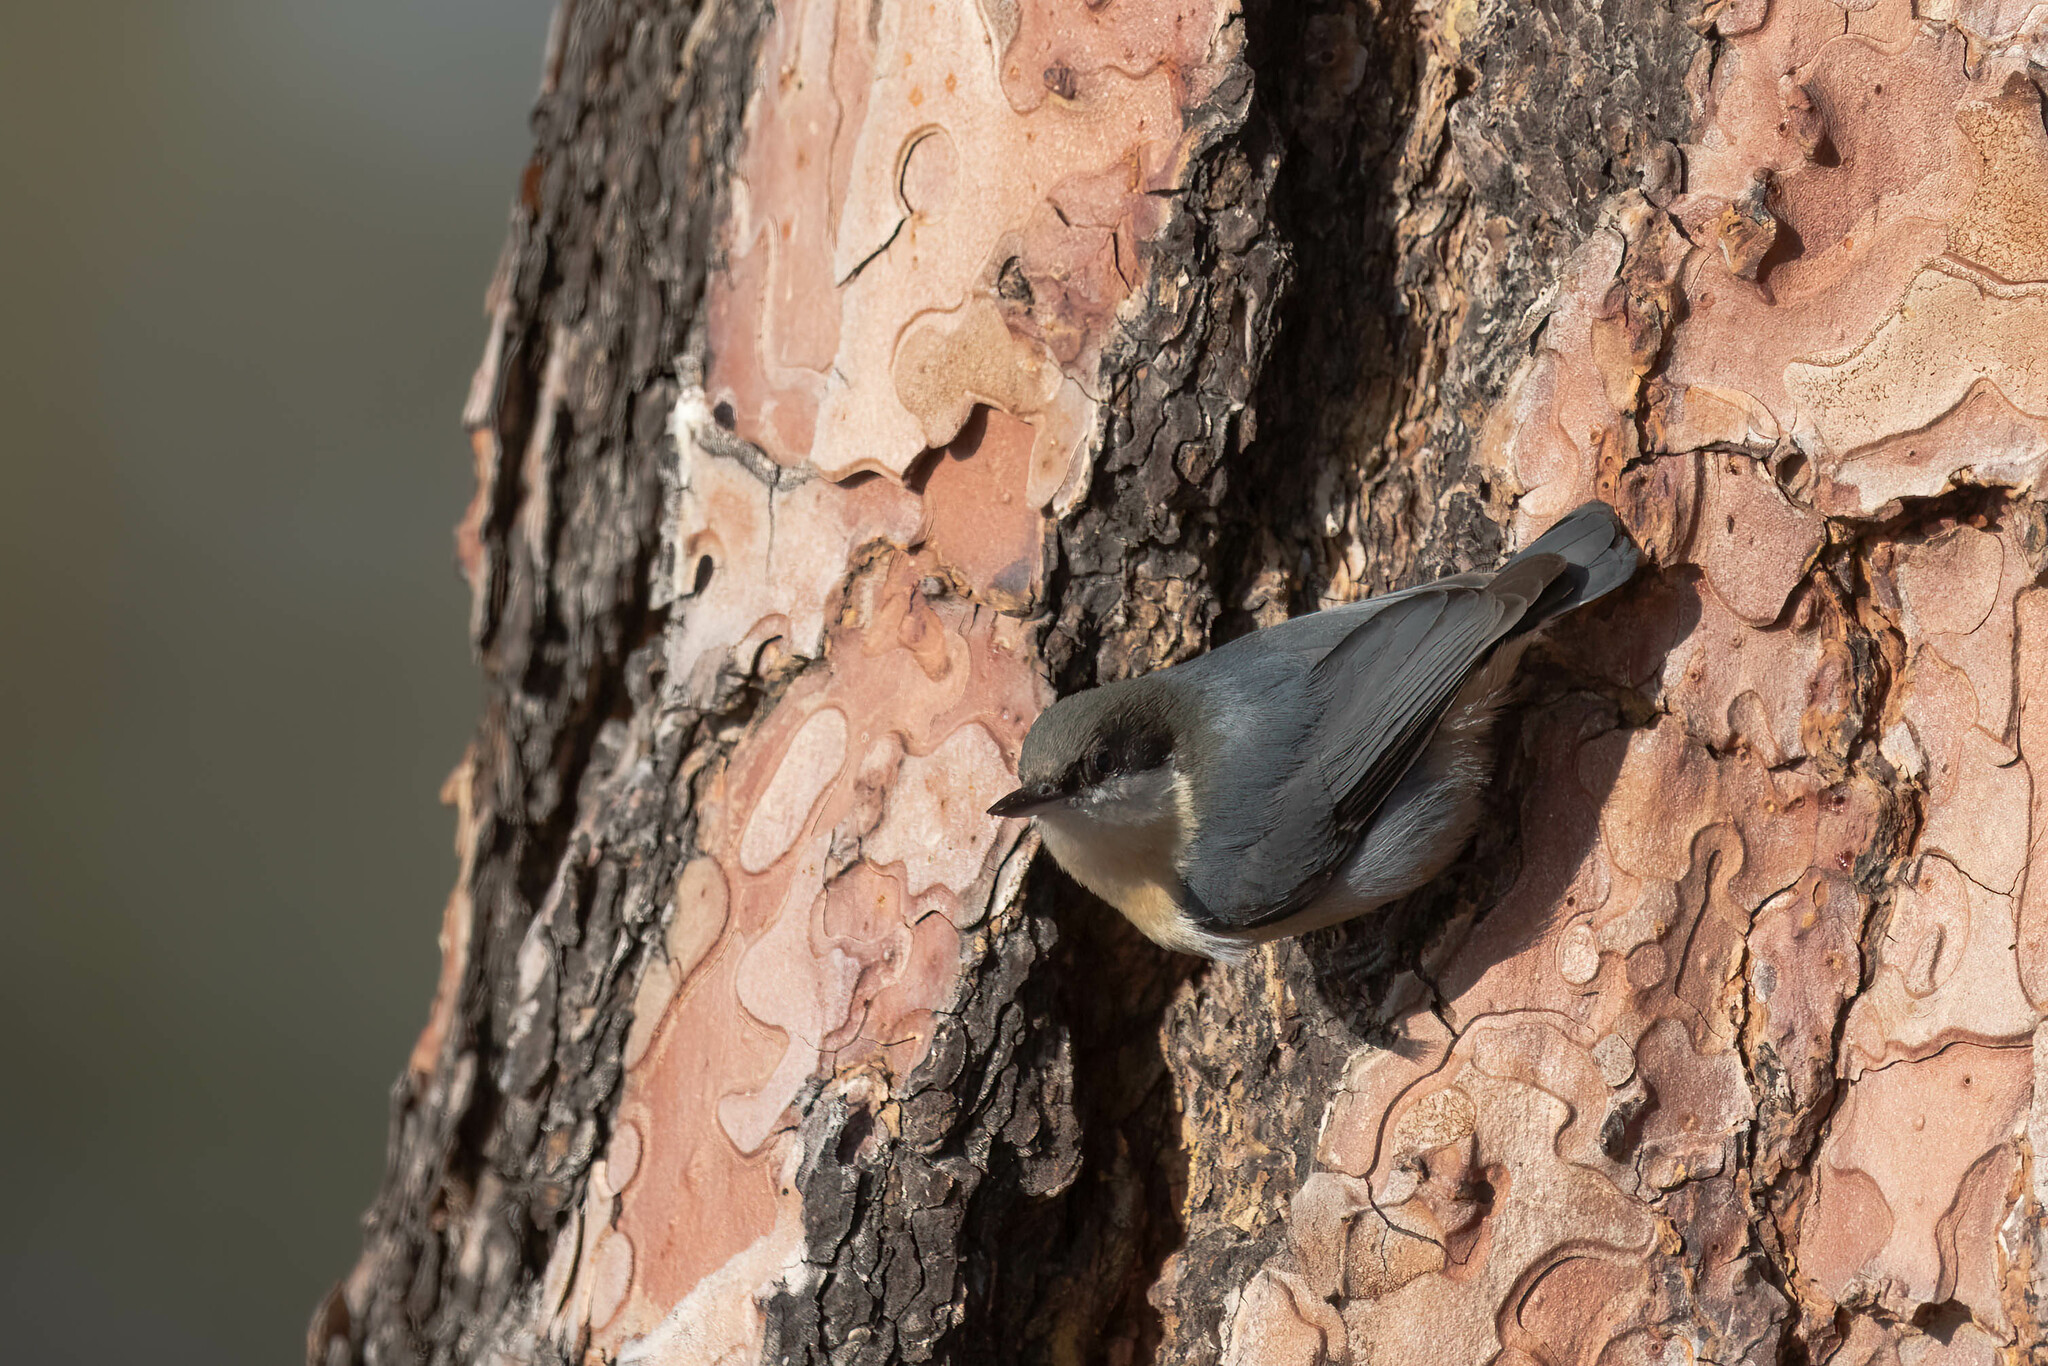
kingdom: Animalia
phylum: Chordata
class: Aves
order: Passeriformes
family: Sittidae
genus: Sitta
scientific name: Sitta pygmaea
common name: Pygmy nuthatch
